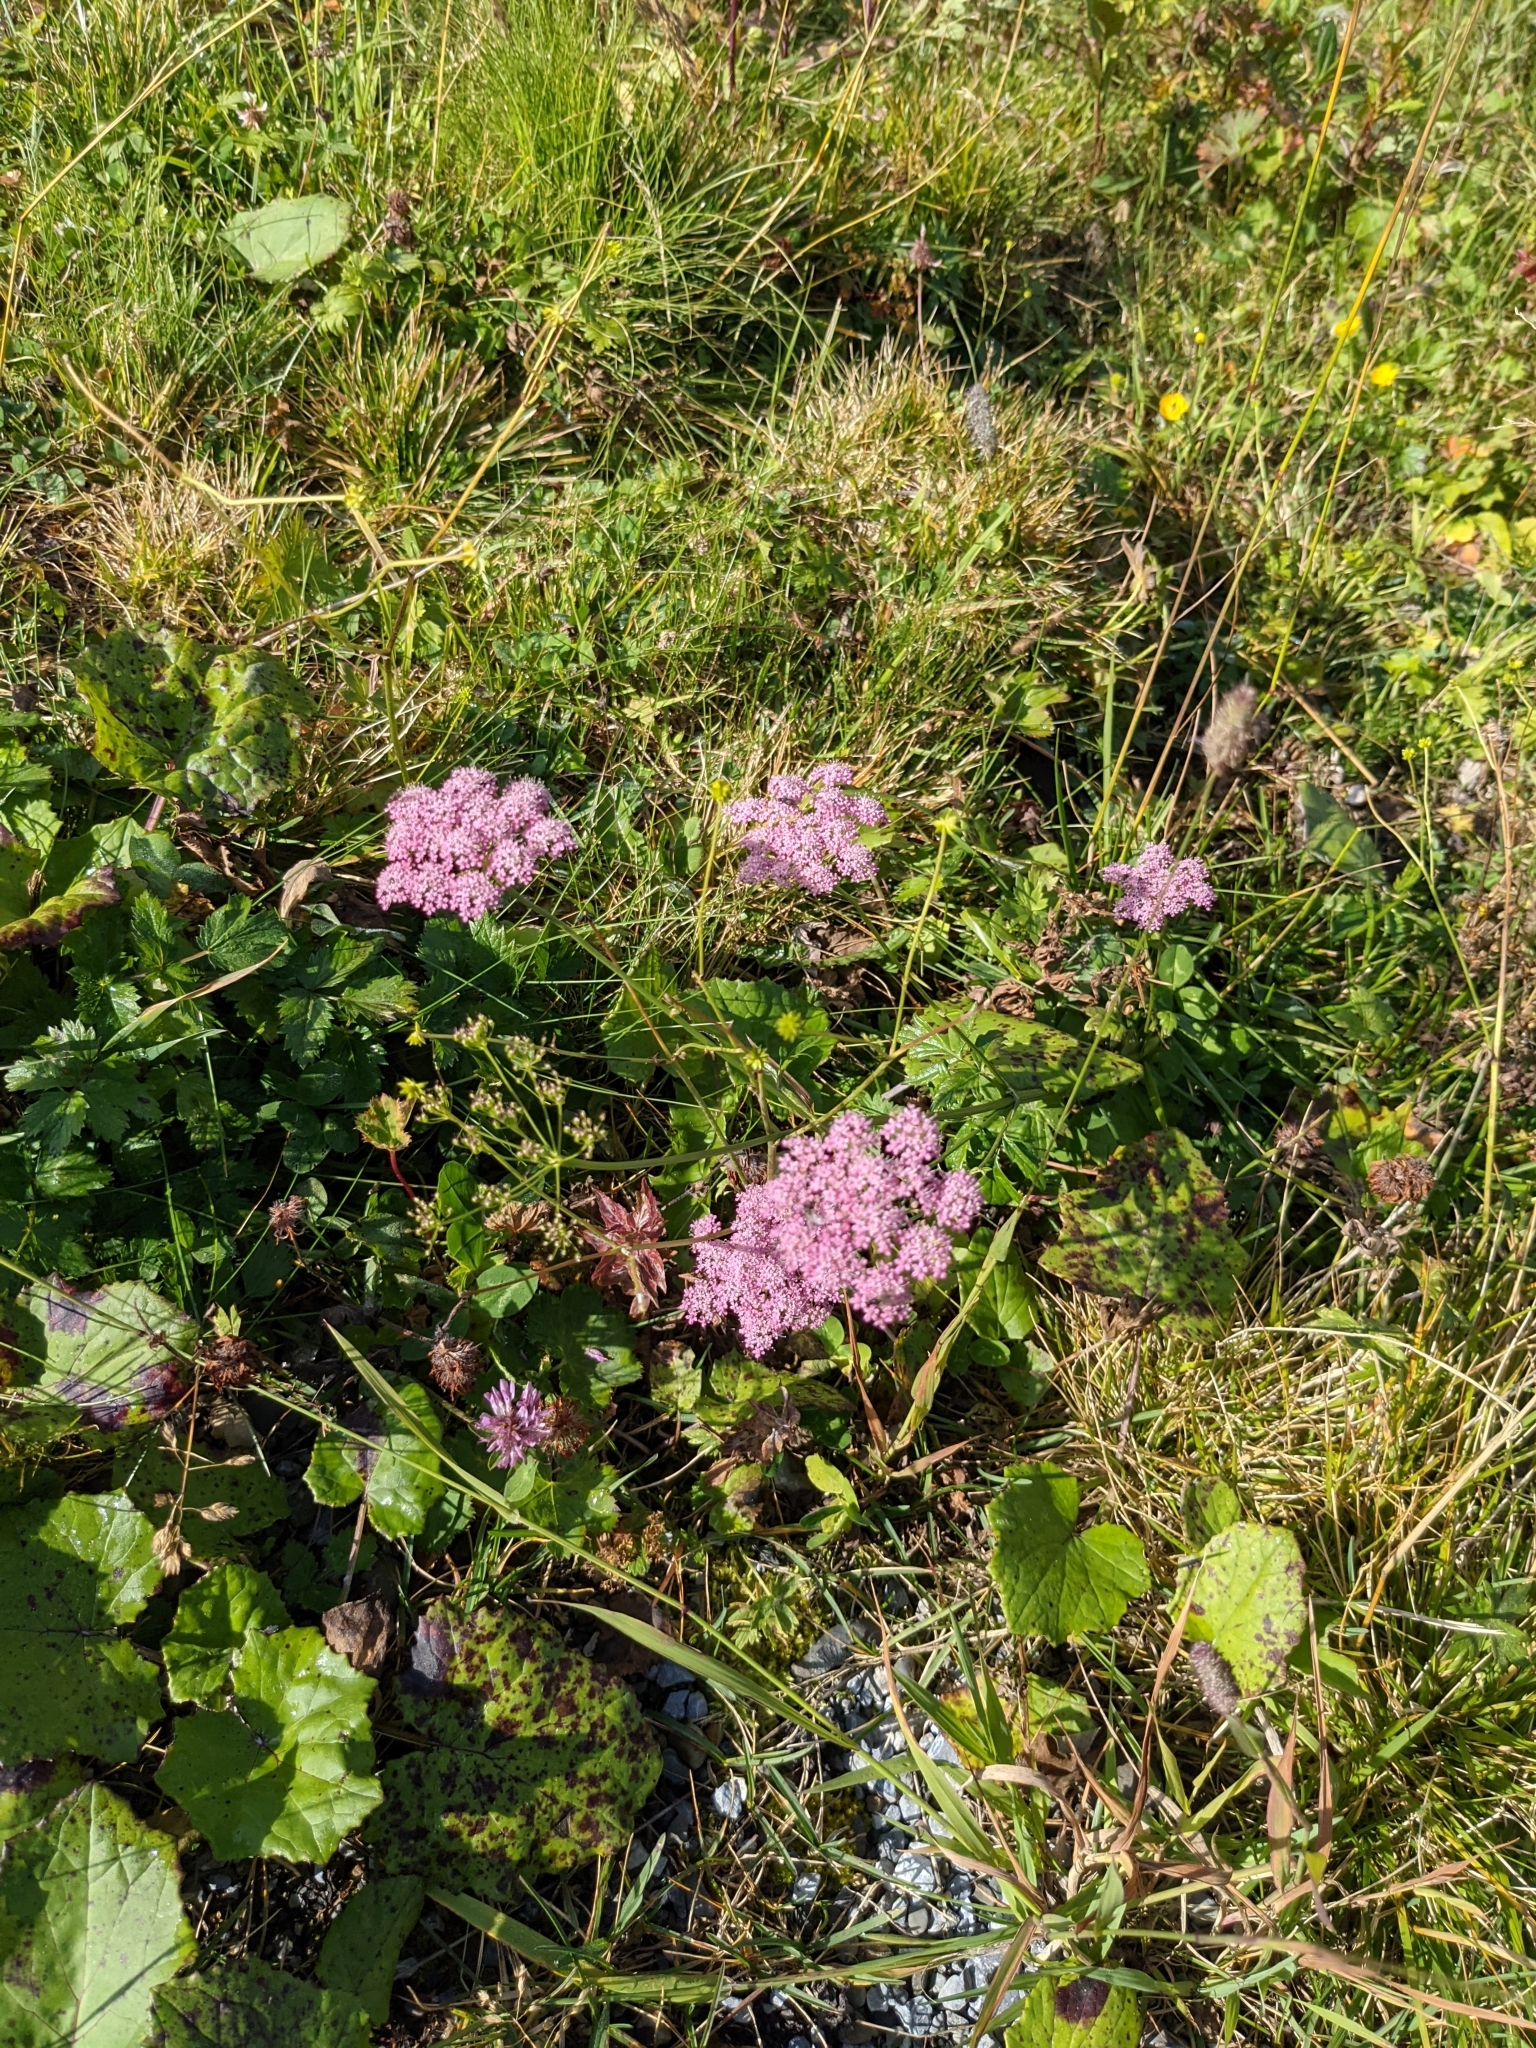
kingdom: Plantae
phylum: Tracheophyta
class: Magnoliopsida
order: Apiales
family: Apiaceae
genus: Pimpinella
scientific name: Pimpinella major
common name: Greater burnet-saxifrage
